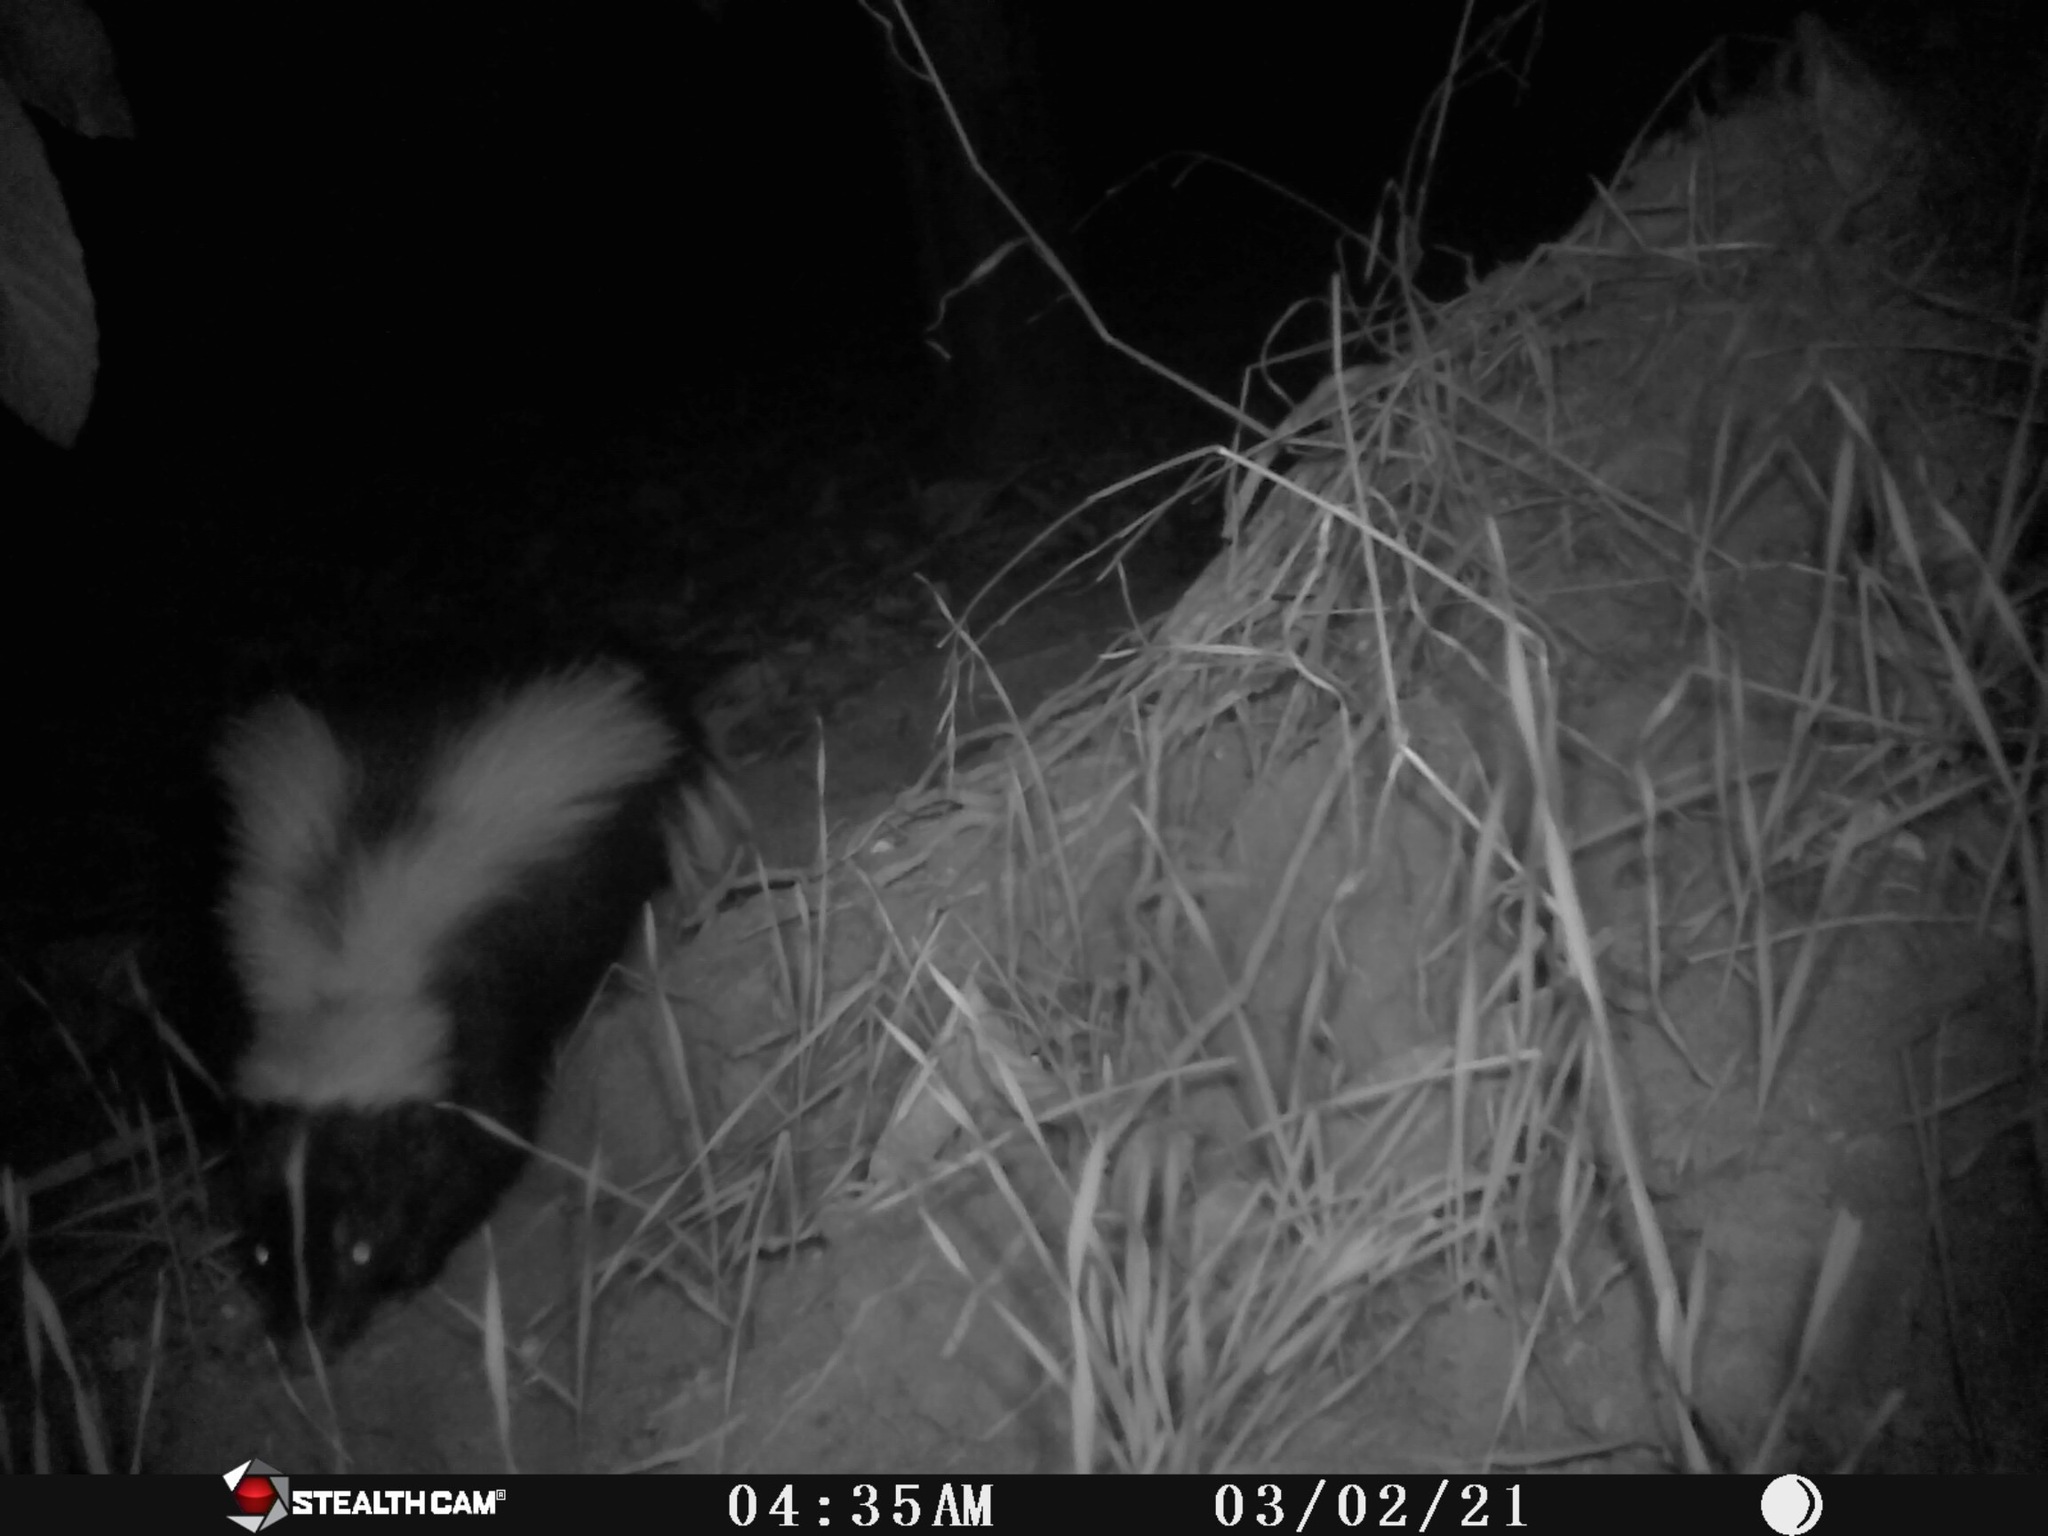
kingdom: Animalia
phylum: Chordata
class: Mammalia
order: Carnivora
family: Mephitidae
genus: Mephitis
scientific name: Mephitis mephitis
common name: Striped skunk
